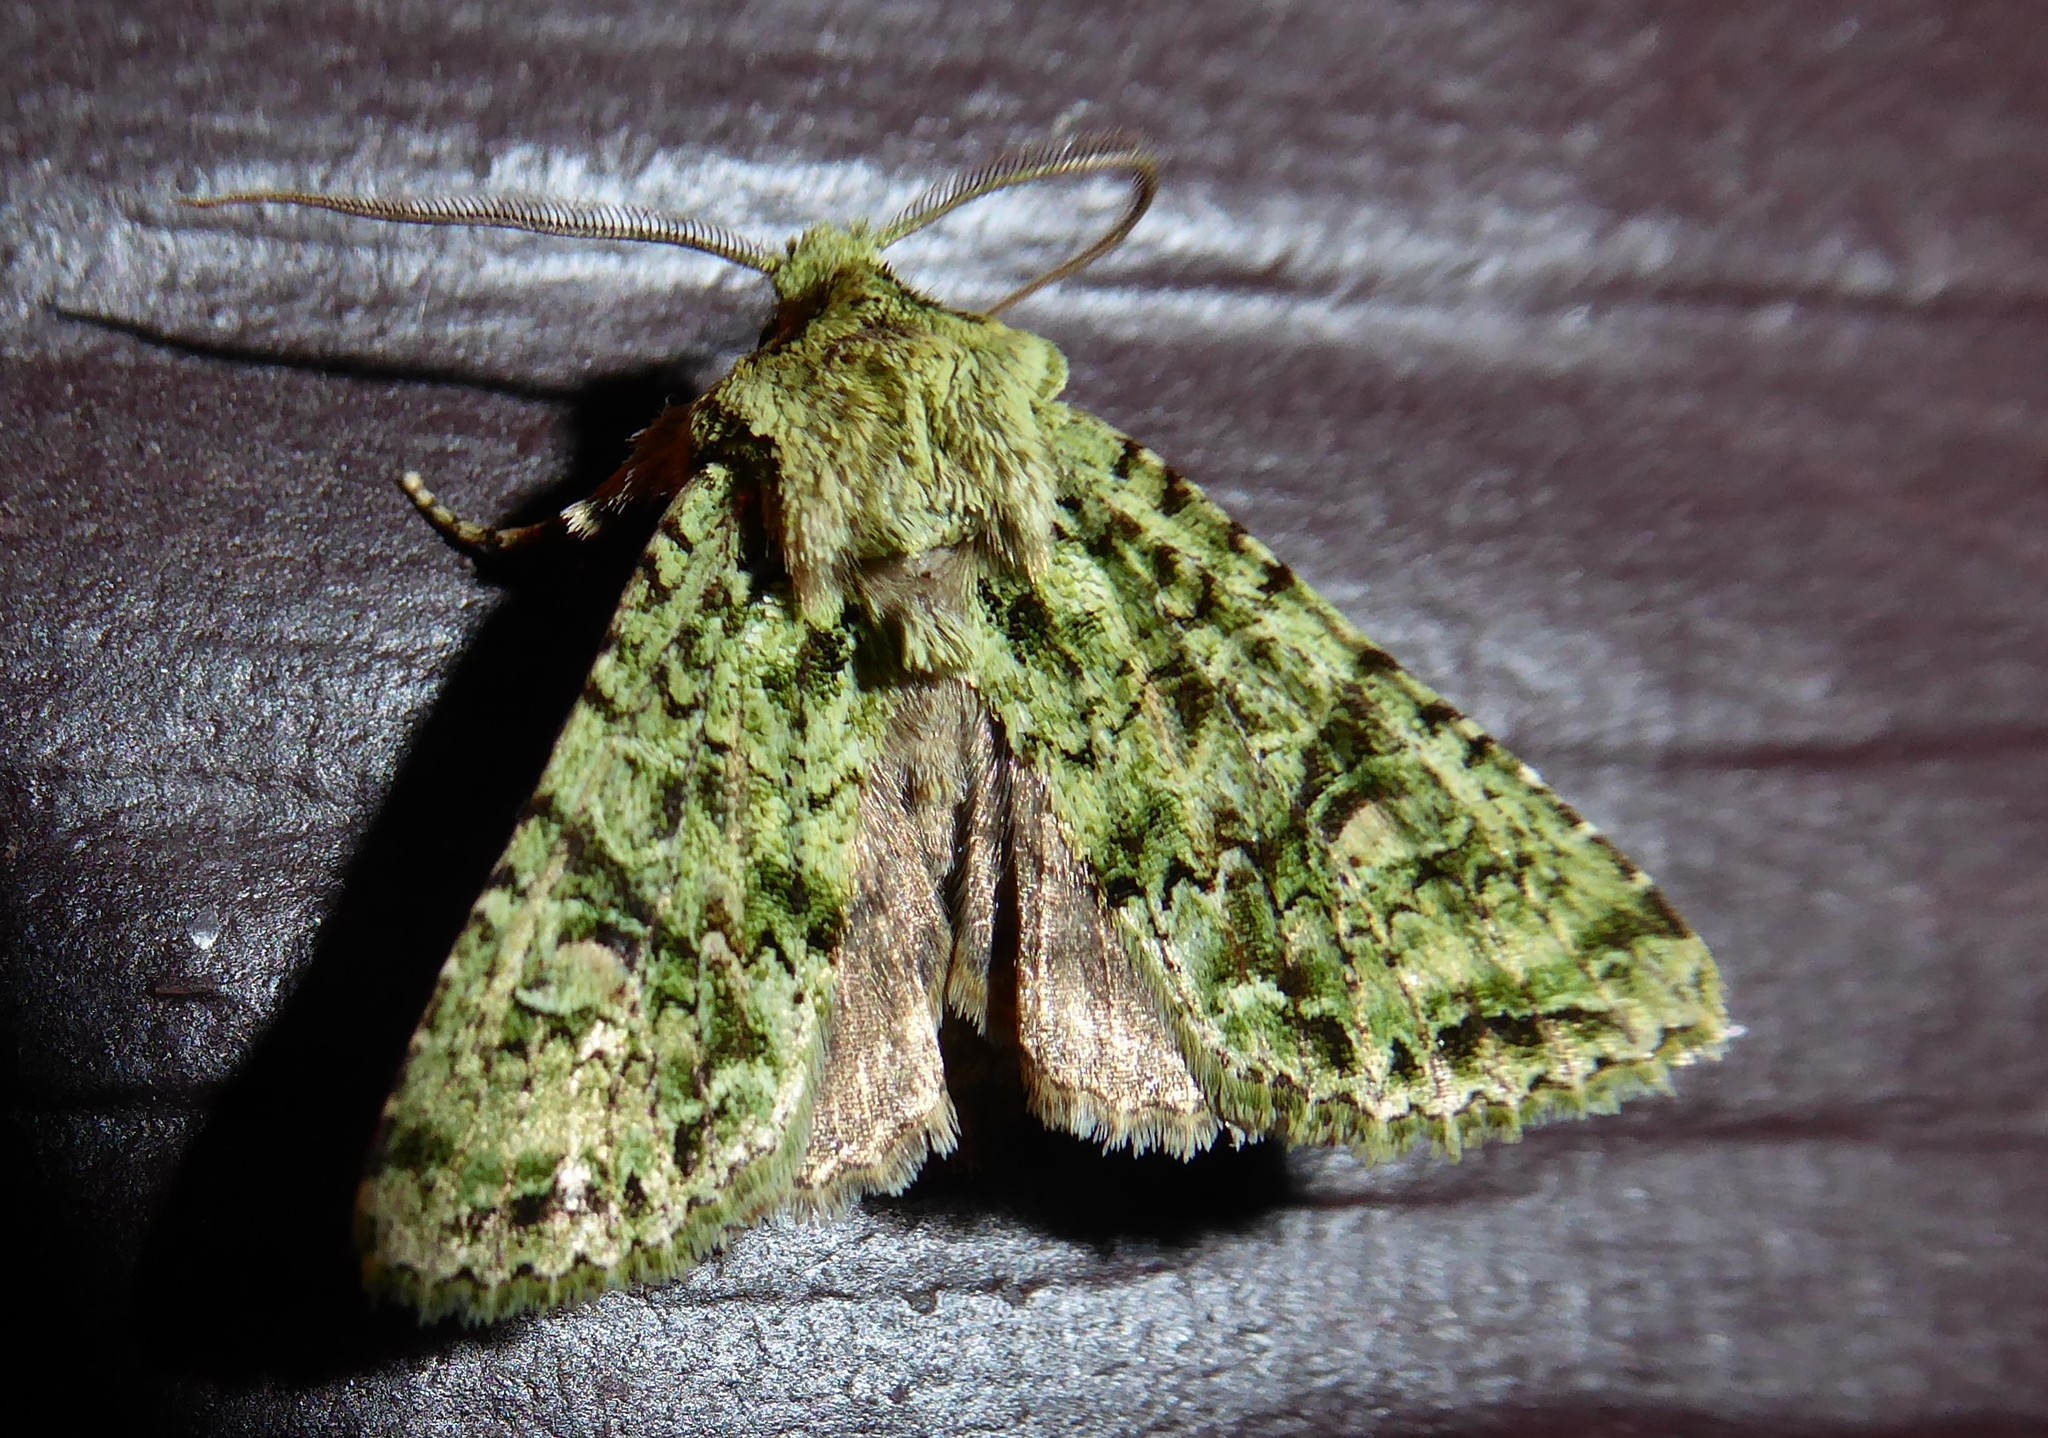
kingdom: Animalia
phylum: Arthropoda
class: Insecta
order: Lepidoptera
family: Noctuidae
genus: Ichneutica
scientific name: Ichneutica
